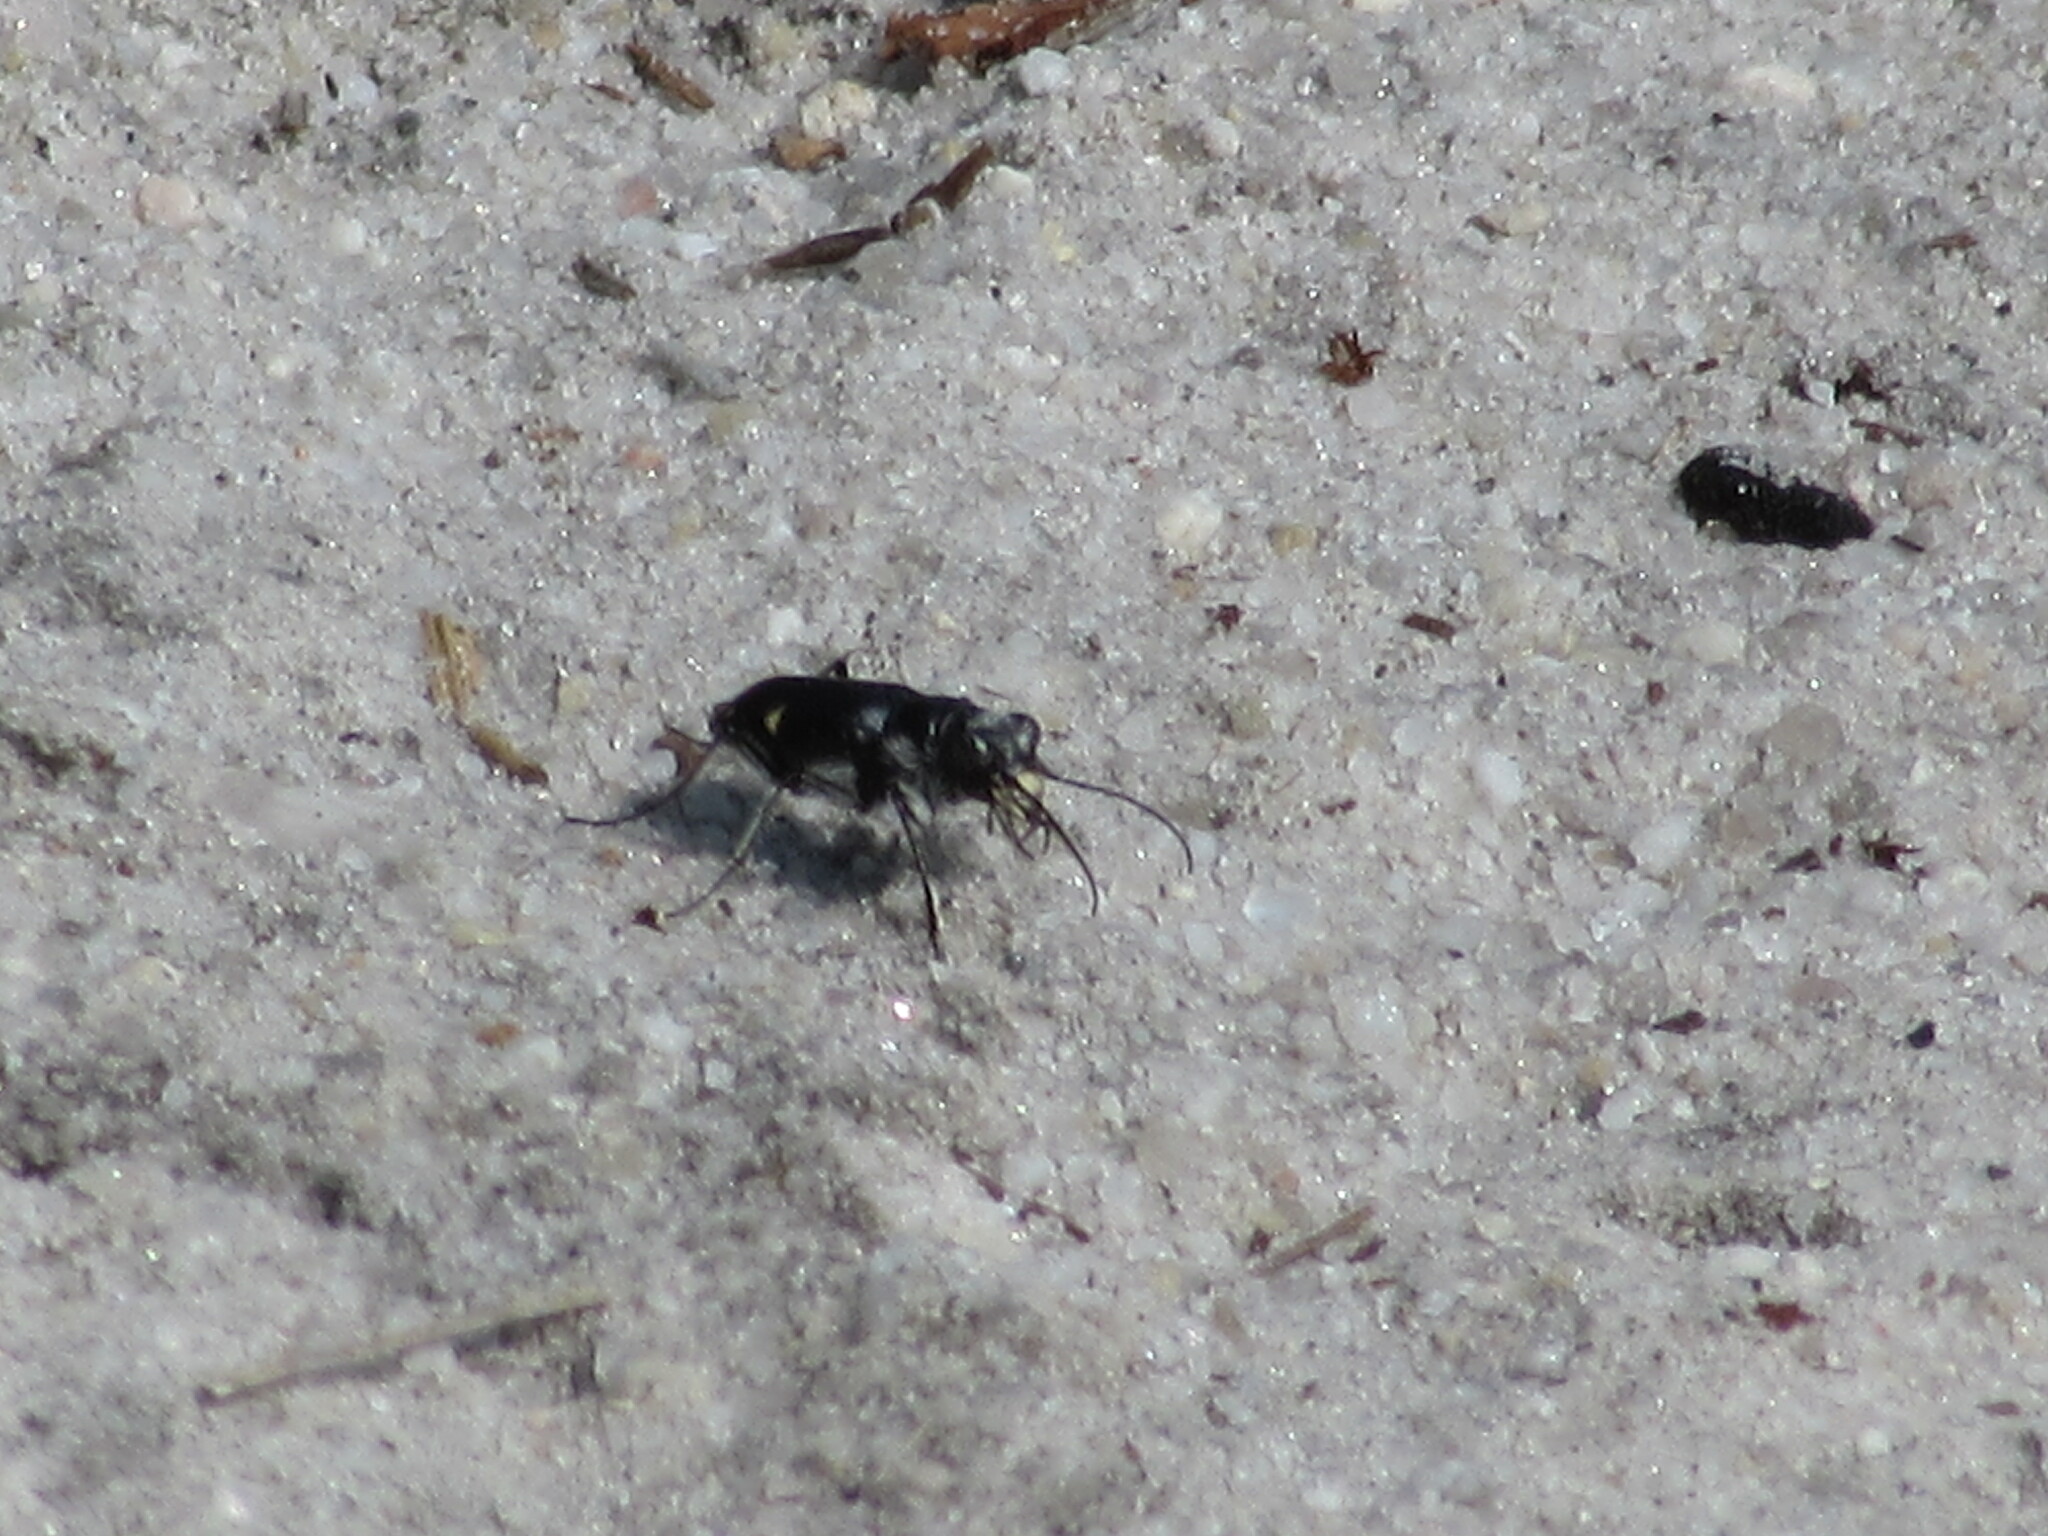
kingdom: Animalia
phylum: Arthropoda
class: Insecta
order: Coleoptera
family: Carabidae
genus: Cicindela
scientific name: Cicindela scutellaris
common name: Festive tiger beetle
